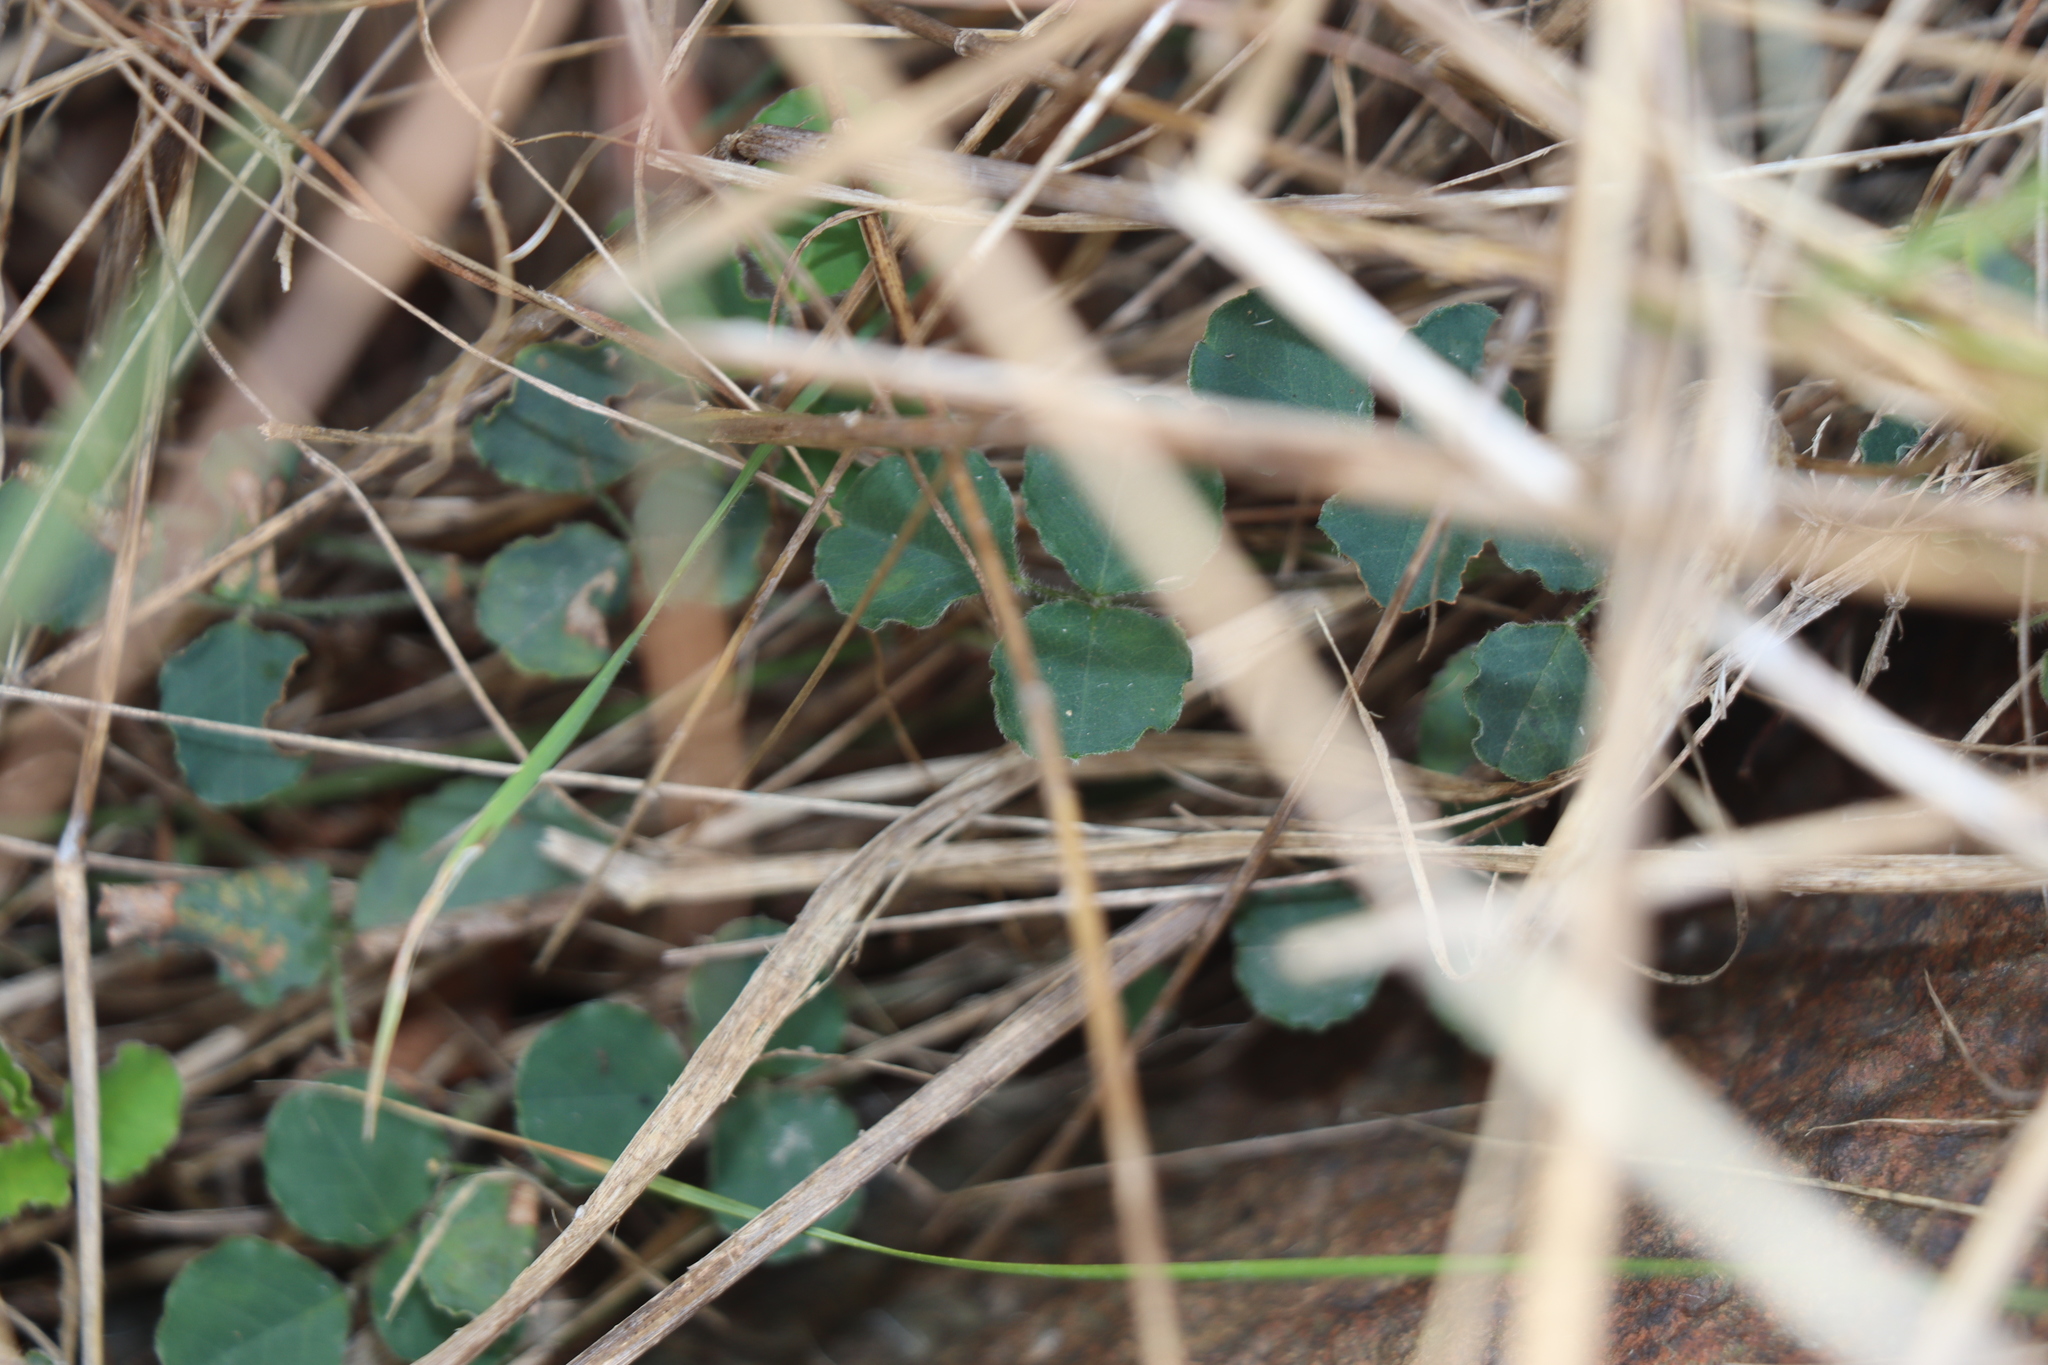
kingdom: Plantae
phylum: Tracheophyta
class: Magnoliopsida
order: Fabales
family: Fabaceae
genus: Kennedia
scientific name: Kennedia prostrata
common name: Running-postman
